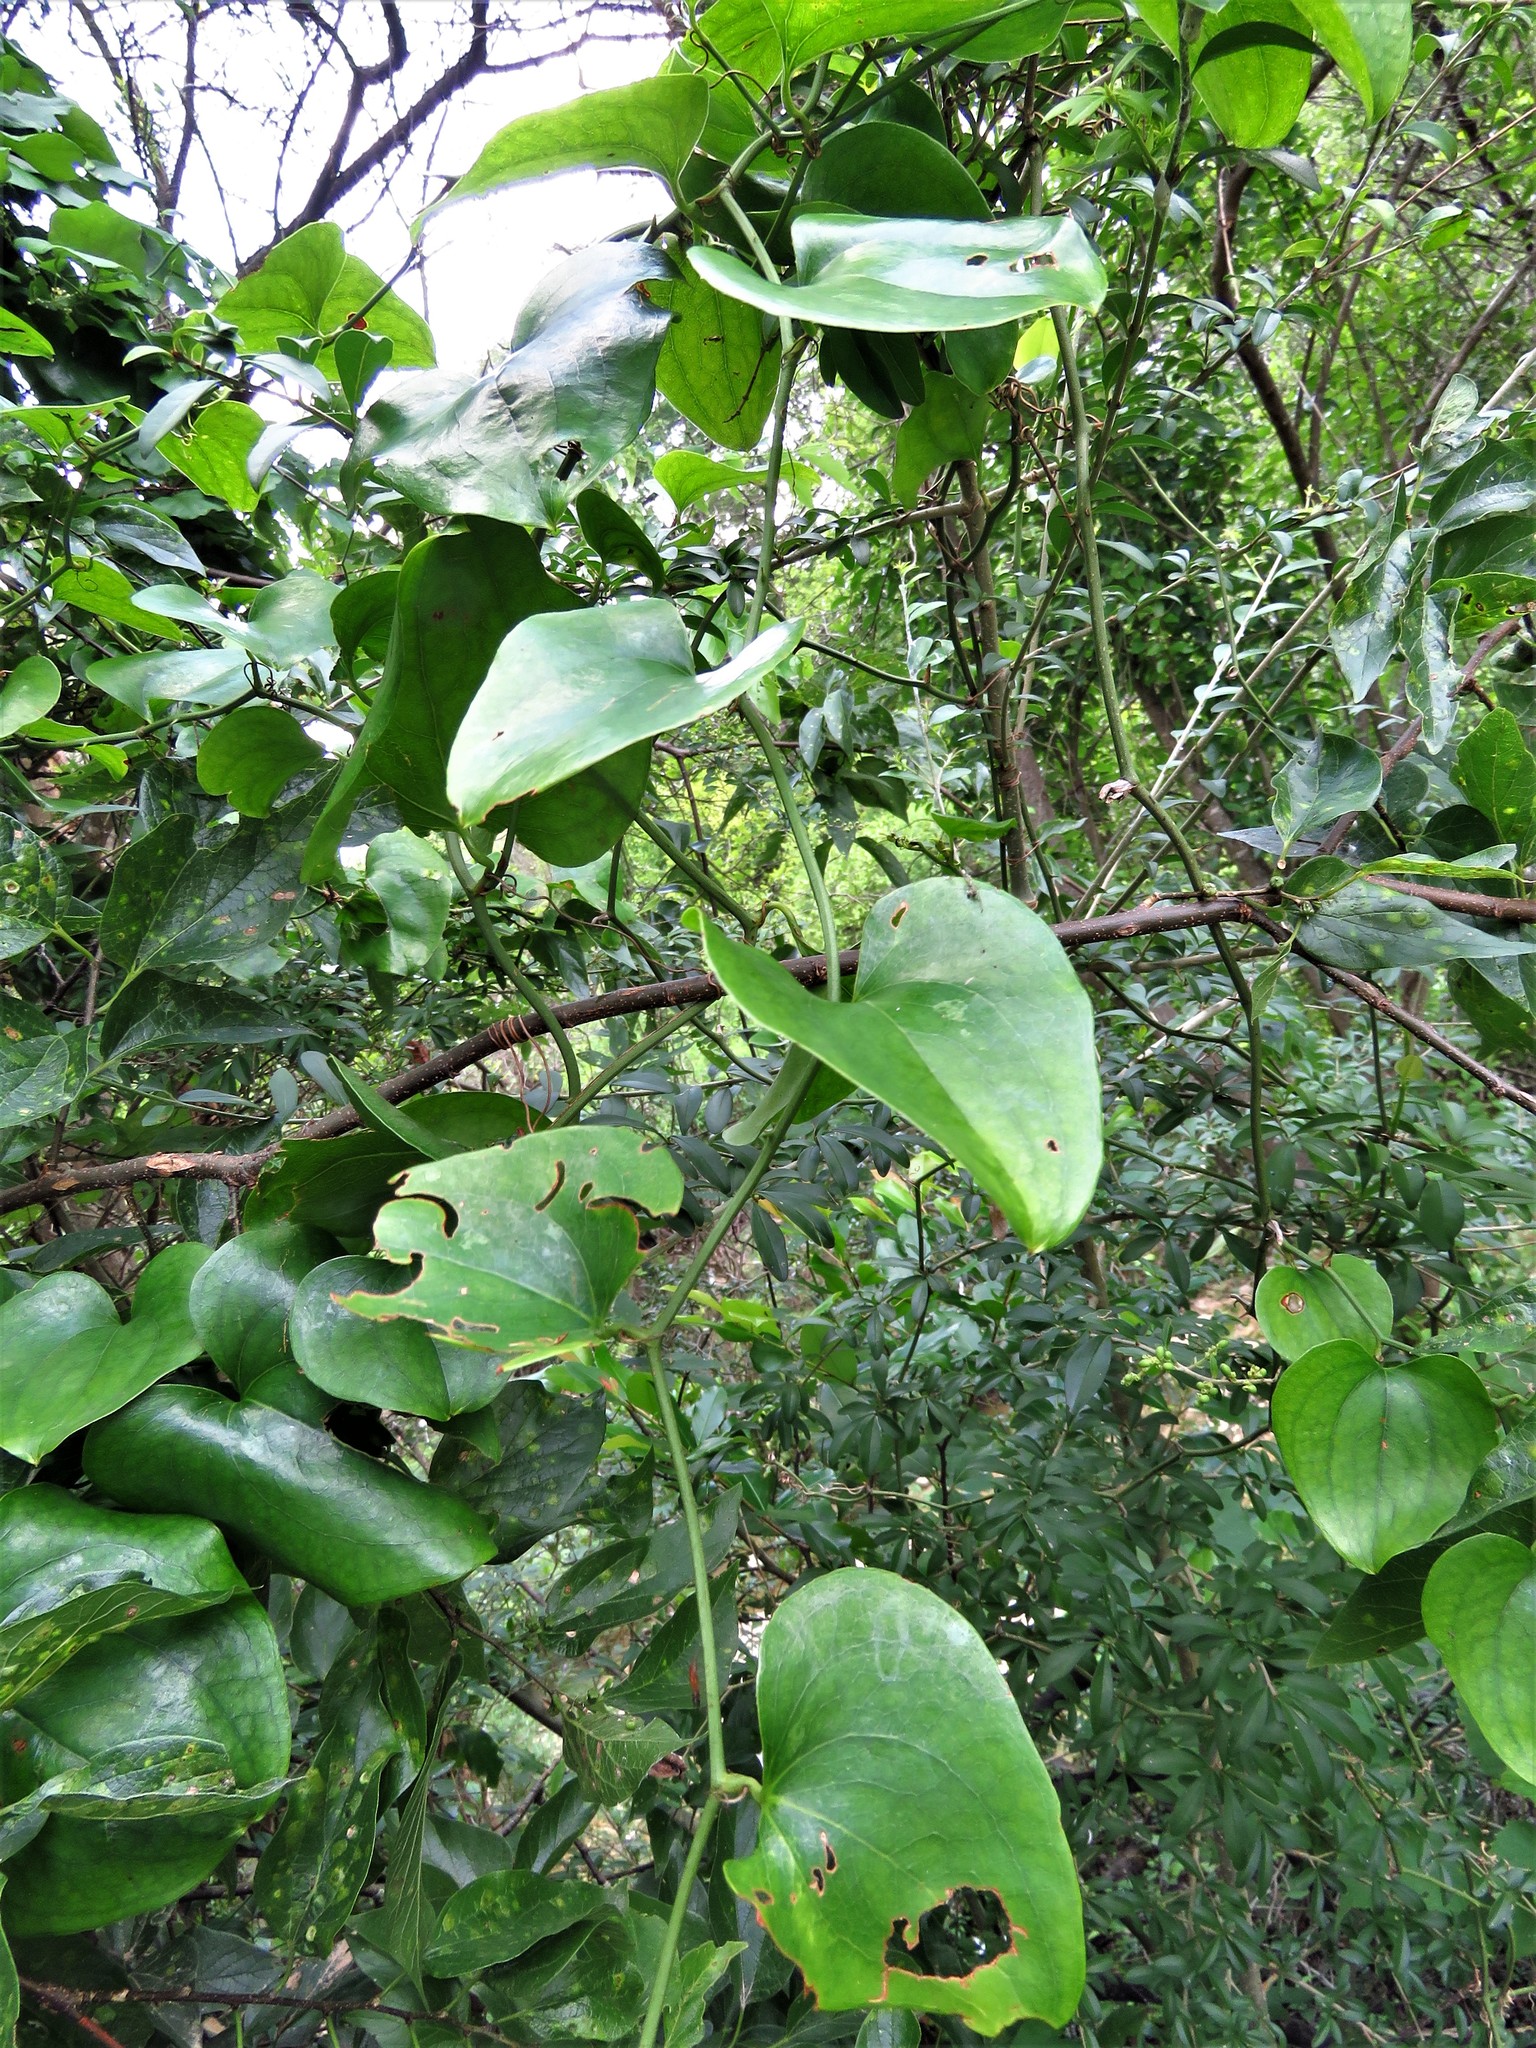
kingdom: Plantae
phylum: Tracheophyta
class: Liliopsida
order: Liliales
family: Smilacaceae
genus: Smilax
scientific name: Smilax rotundifolia
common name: Bullbriar
